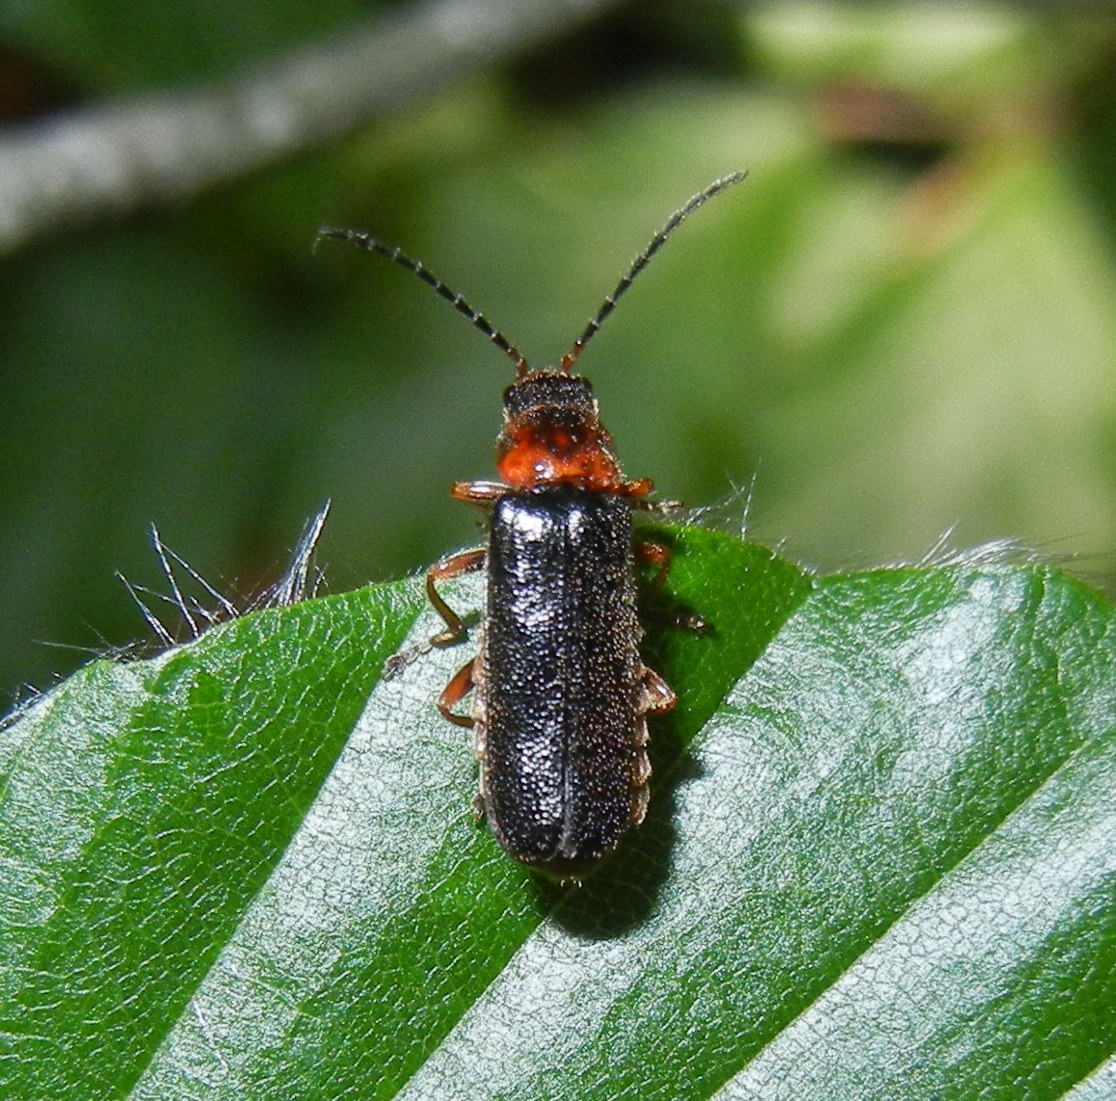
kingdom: Animalia
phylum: Arthropoda
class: Insecta
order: Coleoptera
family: Cantharidae
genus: Cantharis
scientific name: Cantharis flavilabris
